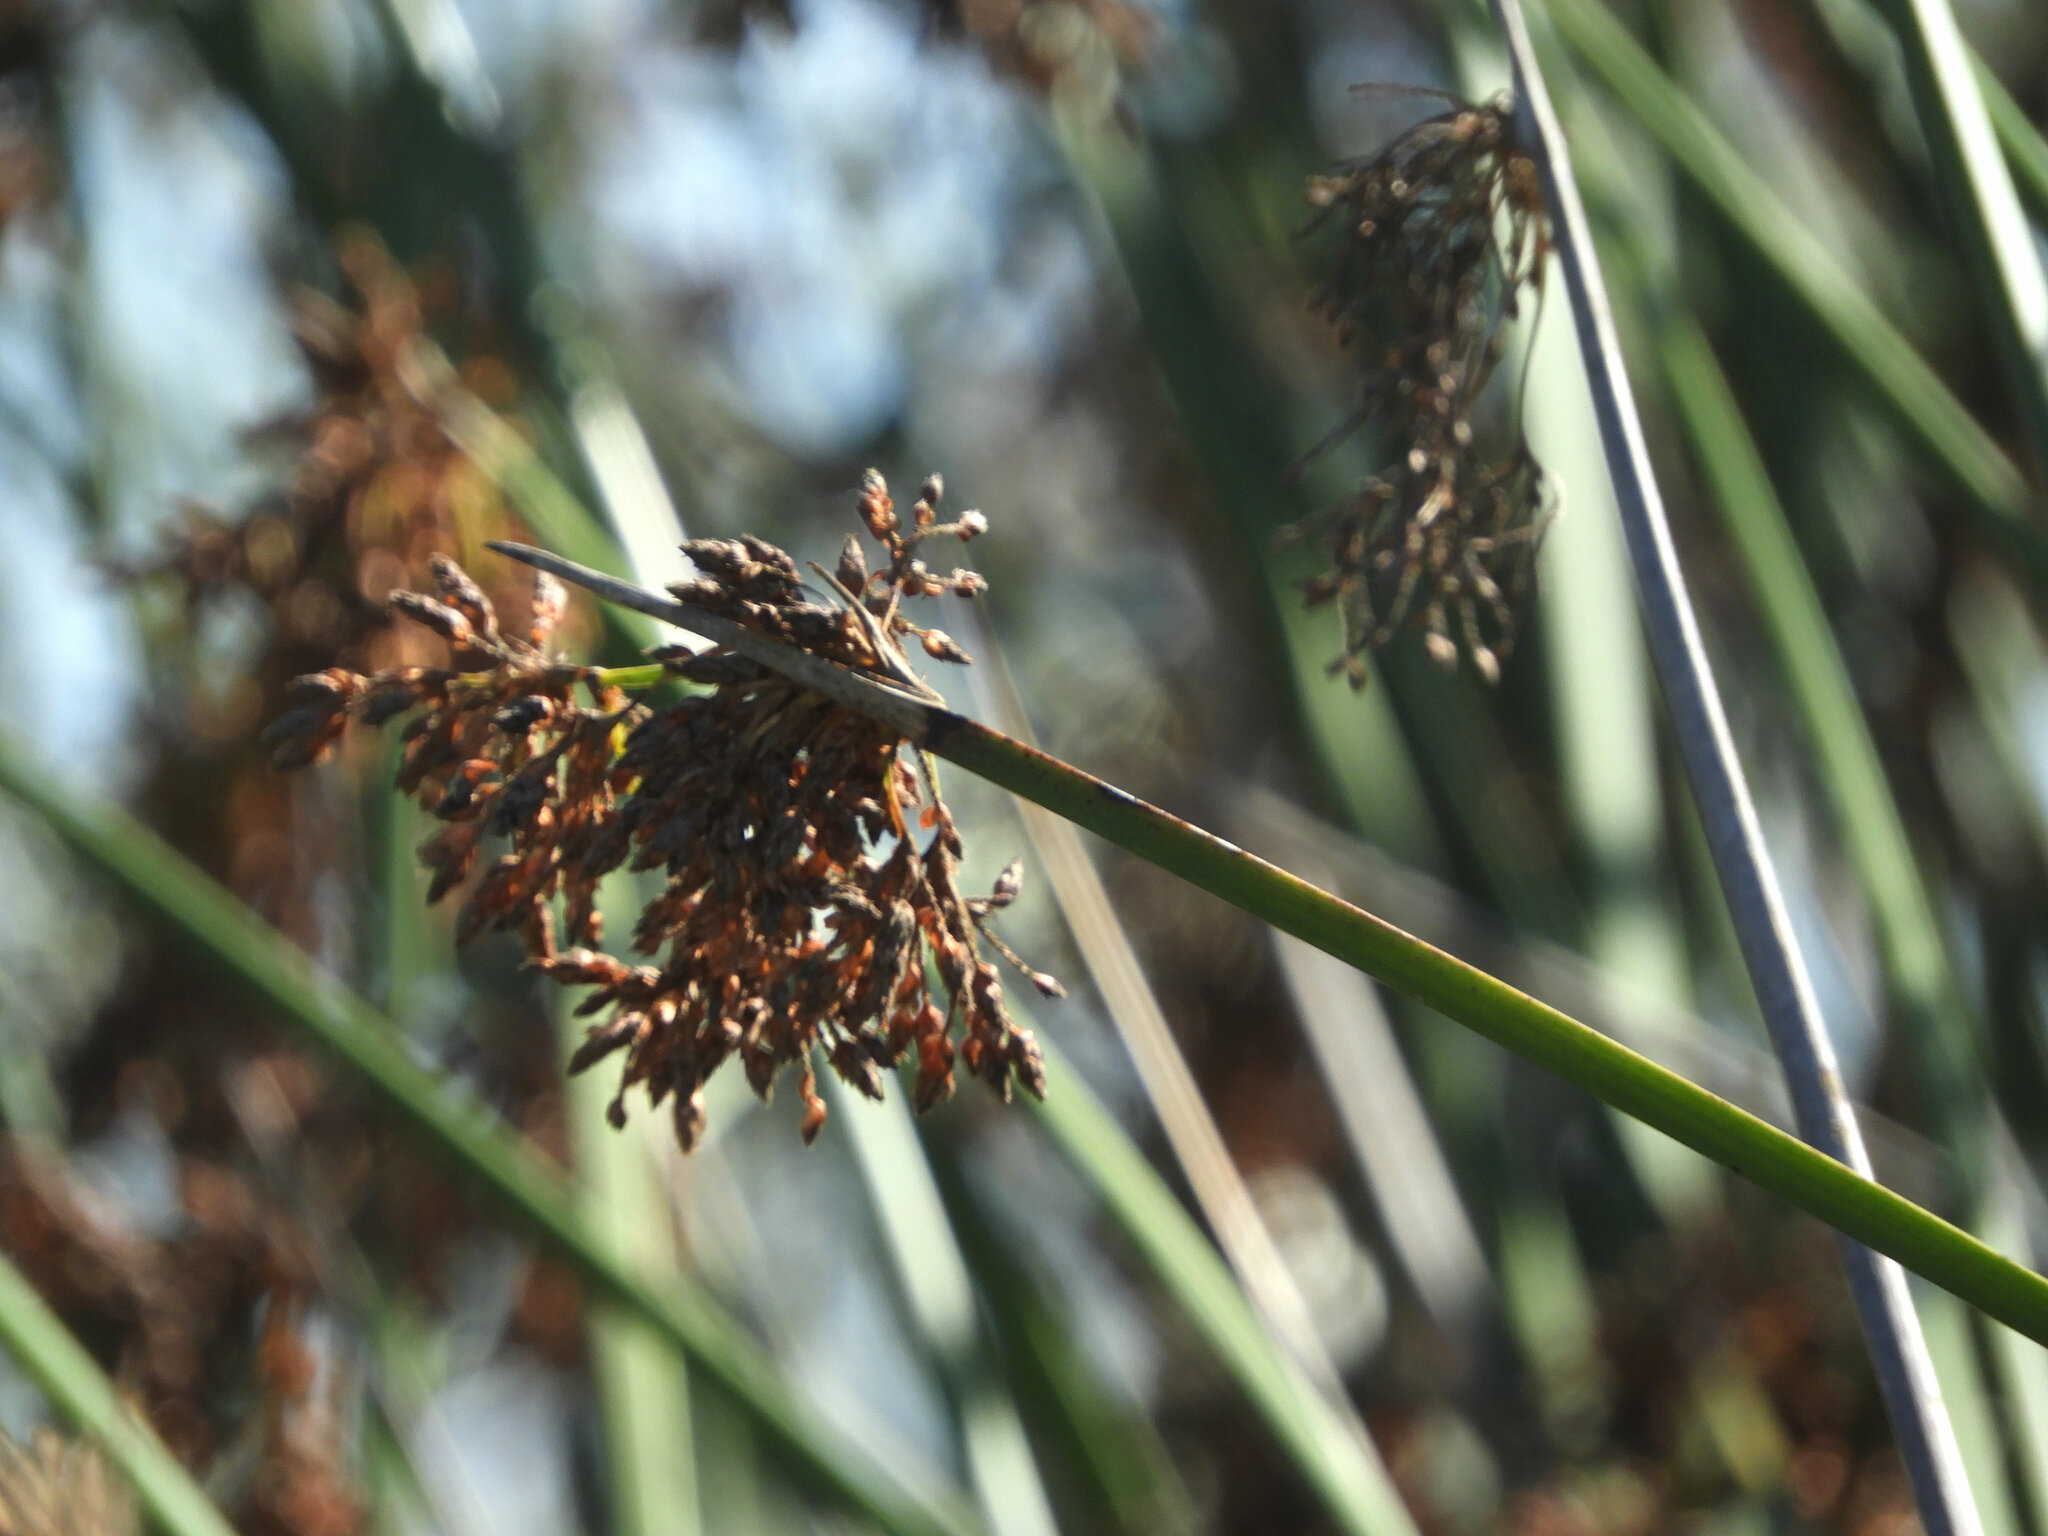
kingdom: Plantae
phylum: Tracheophyta
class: Liliopsida
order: Poales
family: Cyperaceae
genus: Schoenoplectus
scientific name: Schoenoplectus californicus
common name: California bulrush
